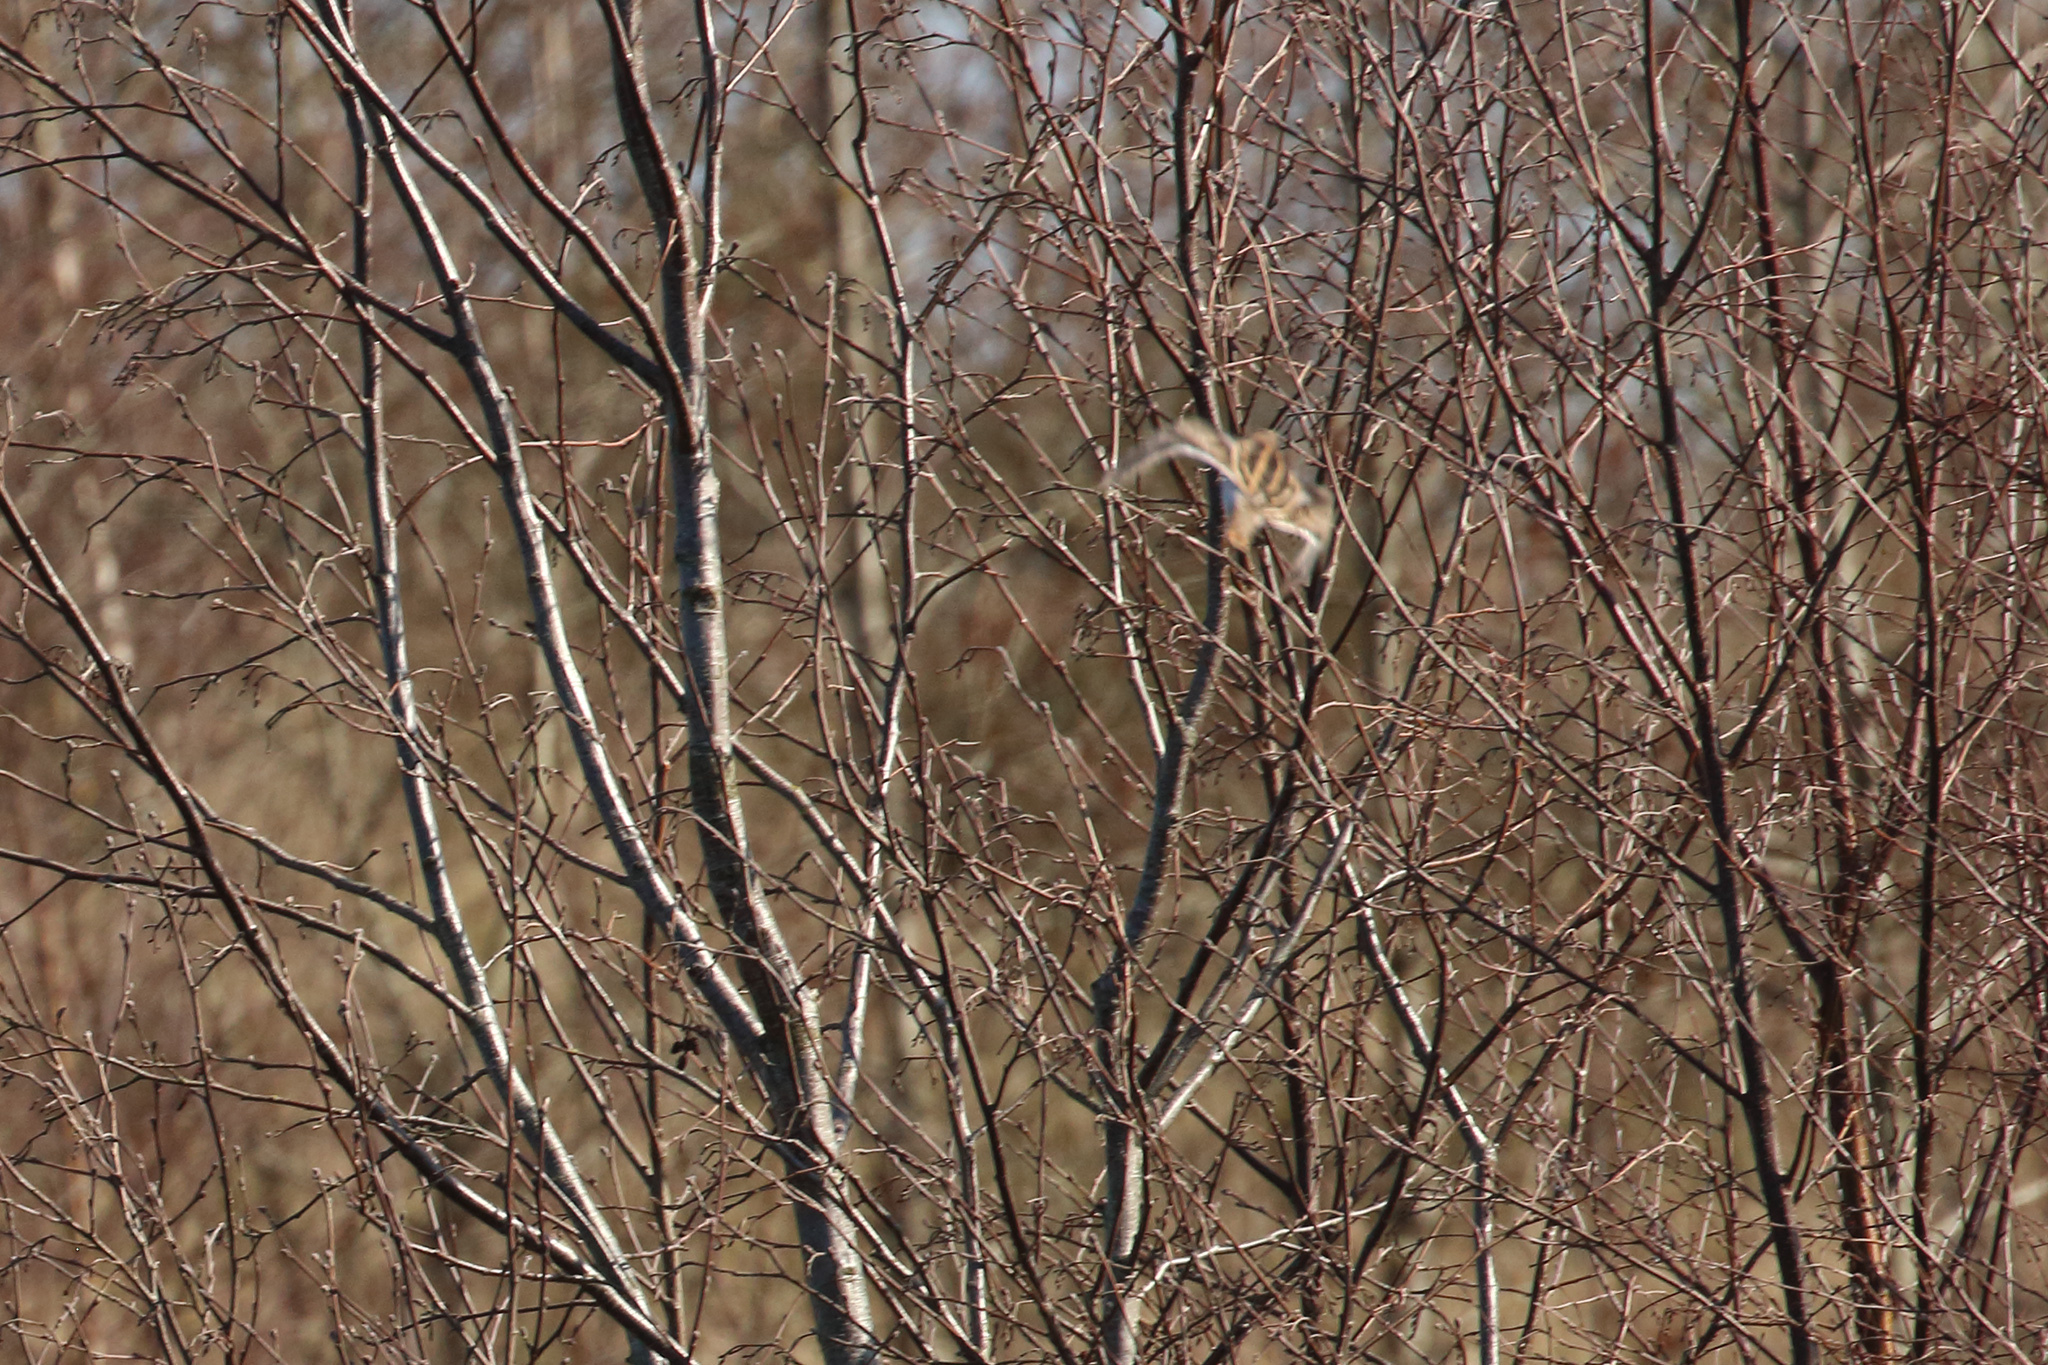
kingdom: Animalia
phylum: Chordata
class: Aves
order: Charadriiformes
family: Scolopacidae
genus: Gallinago
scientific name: Gallinago gallinago
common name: Common snipe
